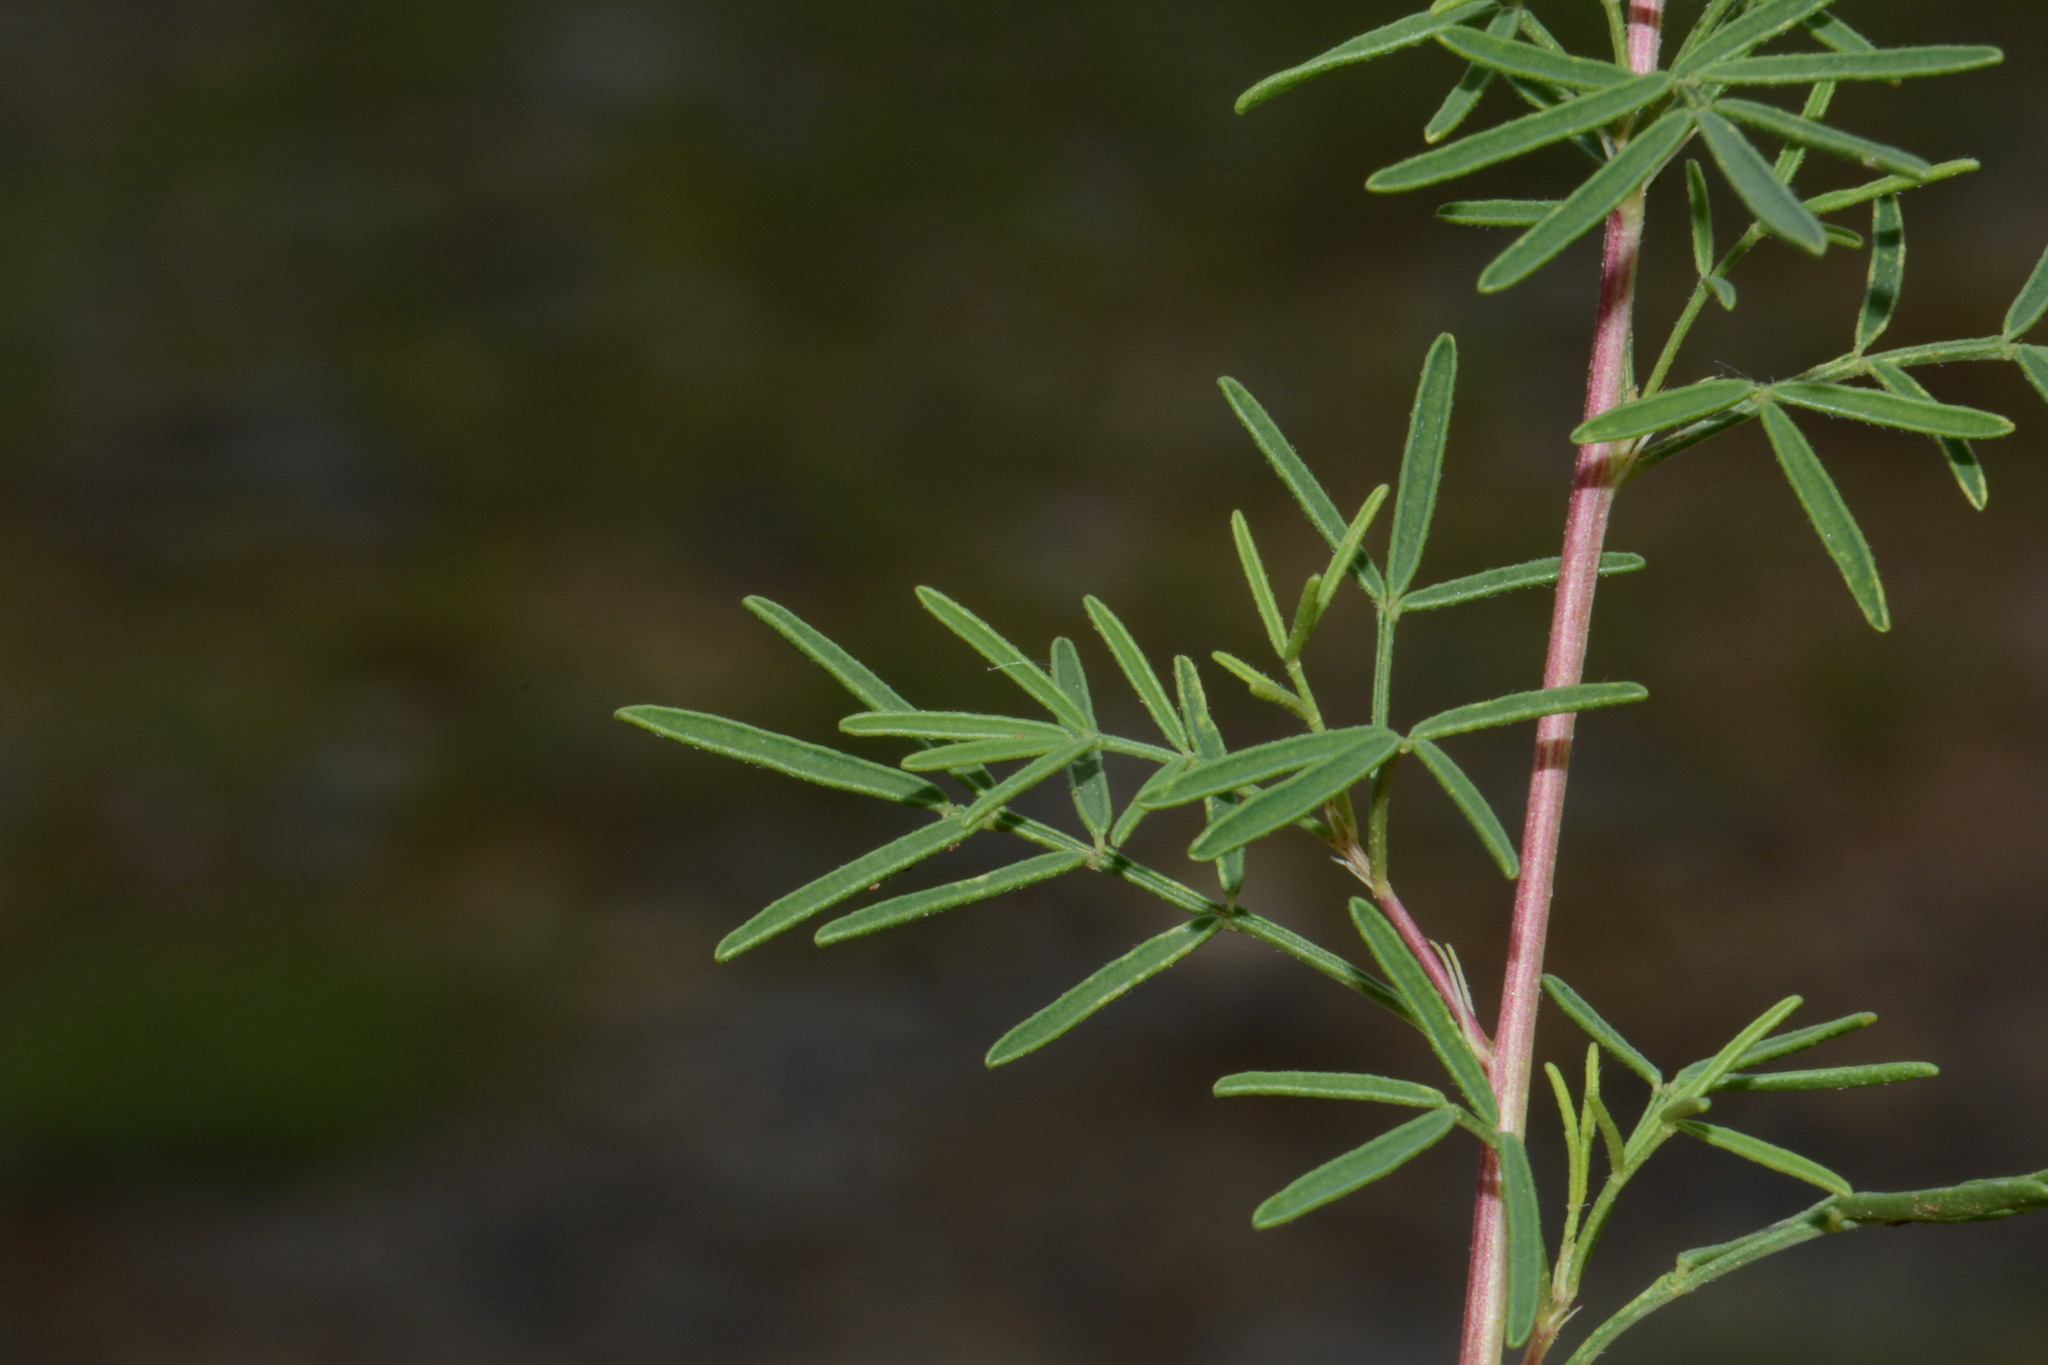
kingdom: Plantae
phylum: Tracheophyta
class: Magnoliopsida
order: Fabales
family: Fabaceae
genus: Dalea
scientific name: Dalea gattingeri
